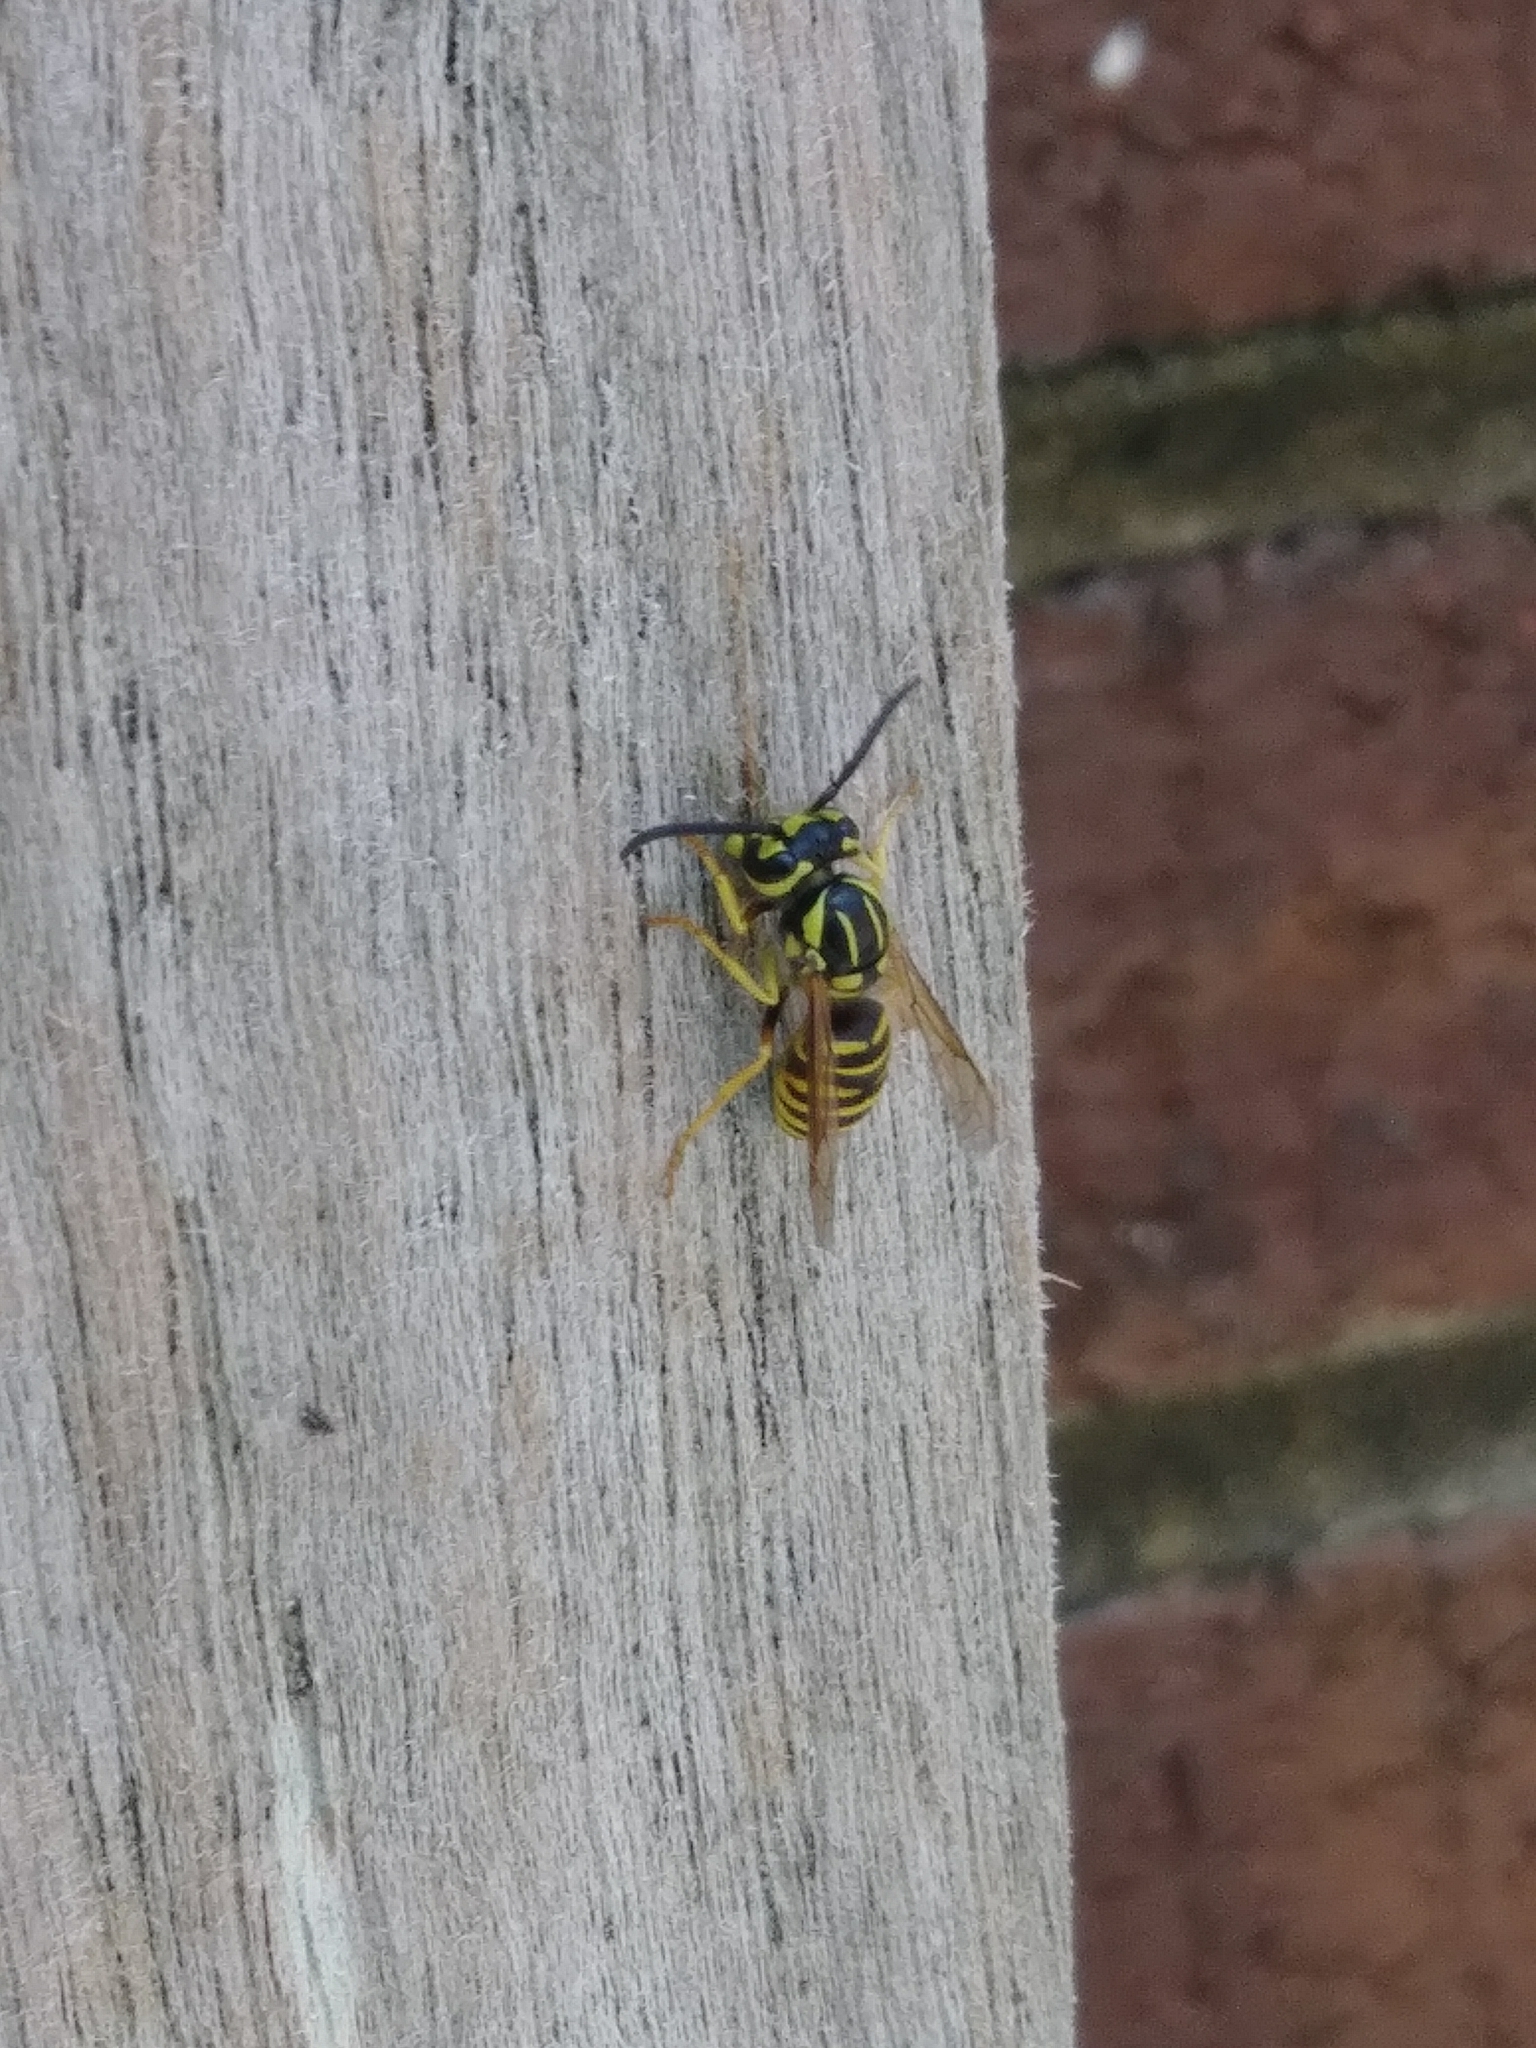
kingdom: Animalia
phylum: Arthropoda
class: Insecta
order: Hymenoptera
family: Vespidae
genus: Vespula
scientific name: Vespula squamosa
